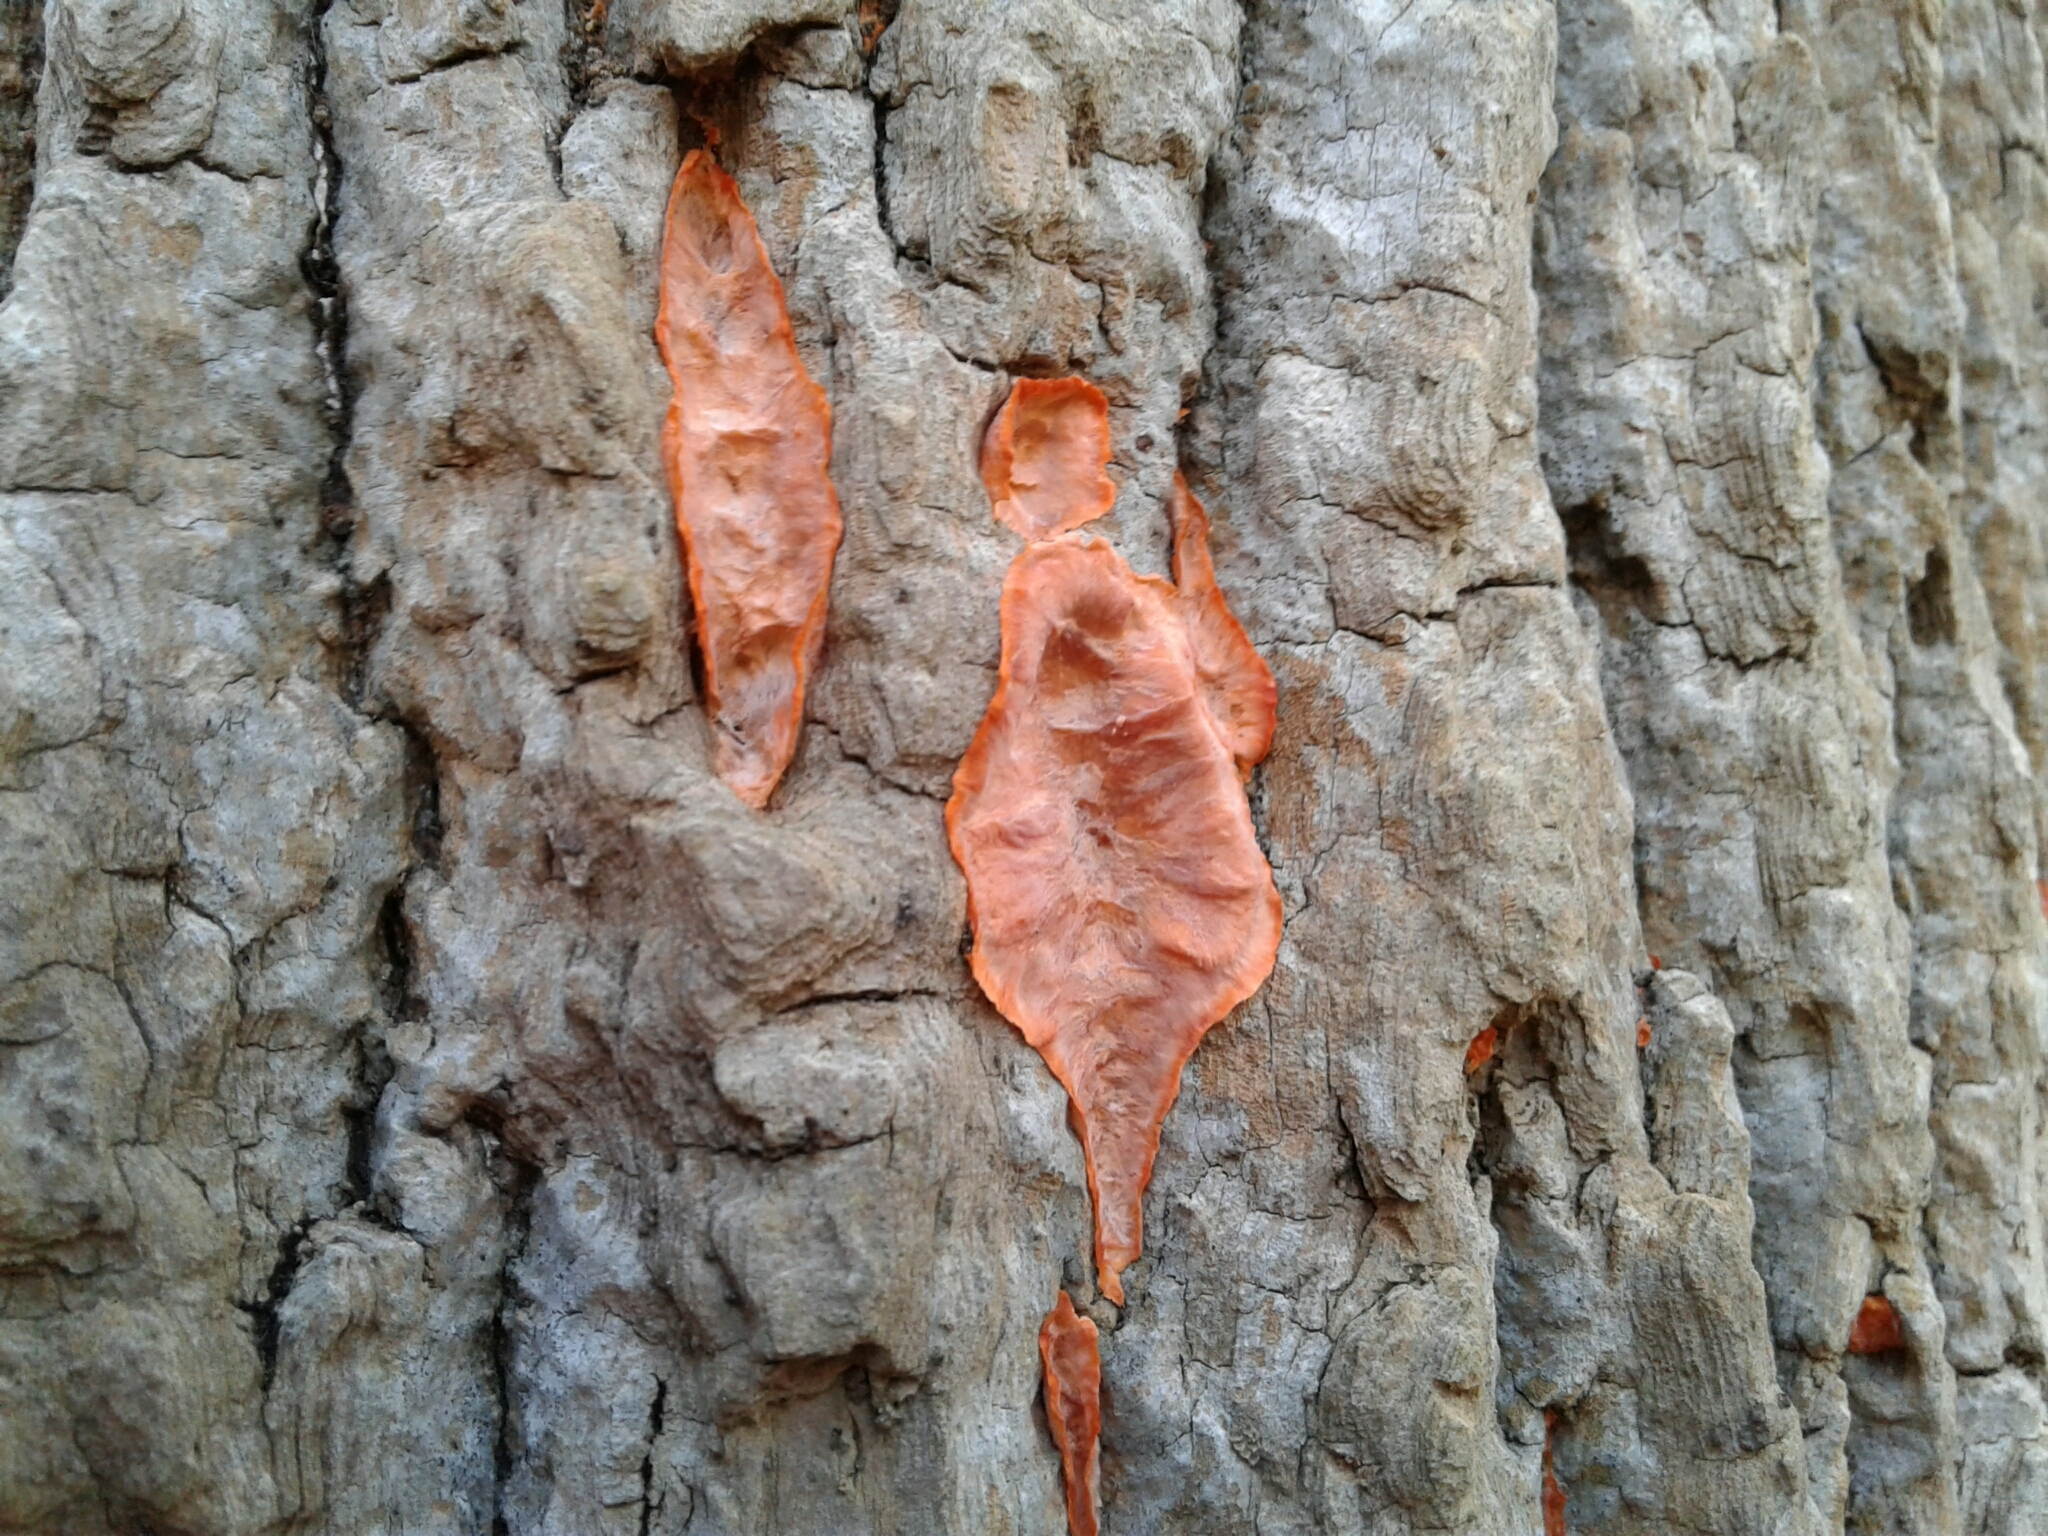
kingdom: Fungi
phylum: Basidiomycota
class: Agaricomycetes
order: Polyporales
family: Meruliaceae
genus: Phlebia
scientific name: Phlebia radiata
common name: Wrinkled crust
